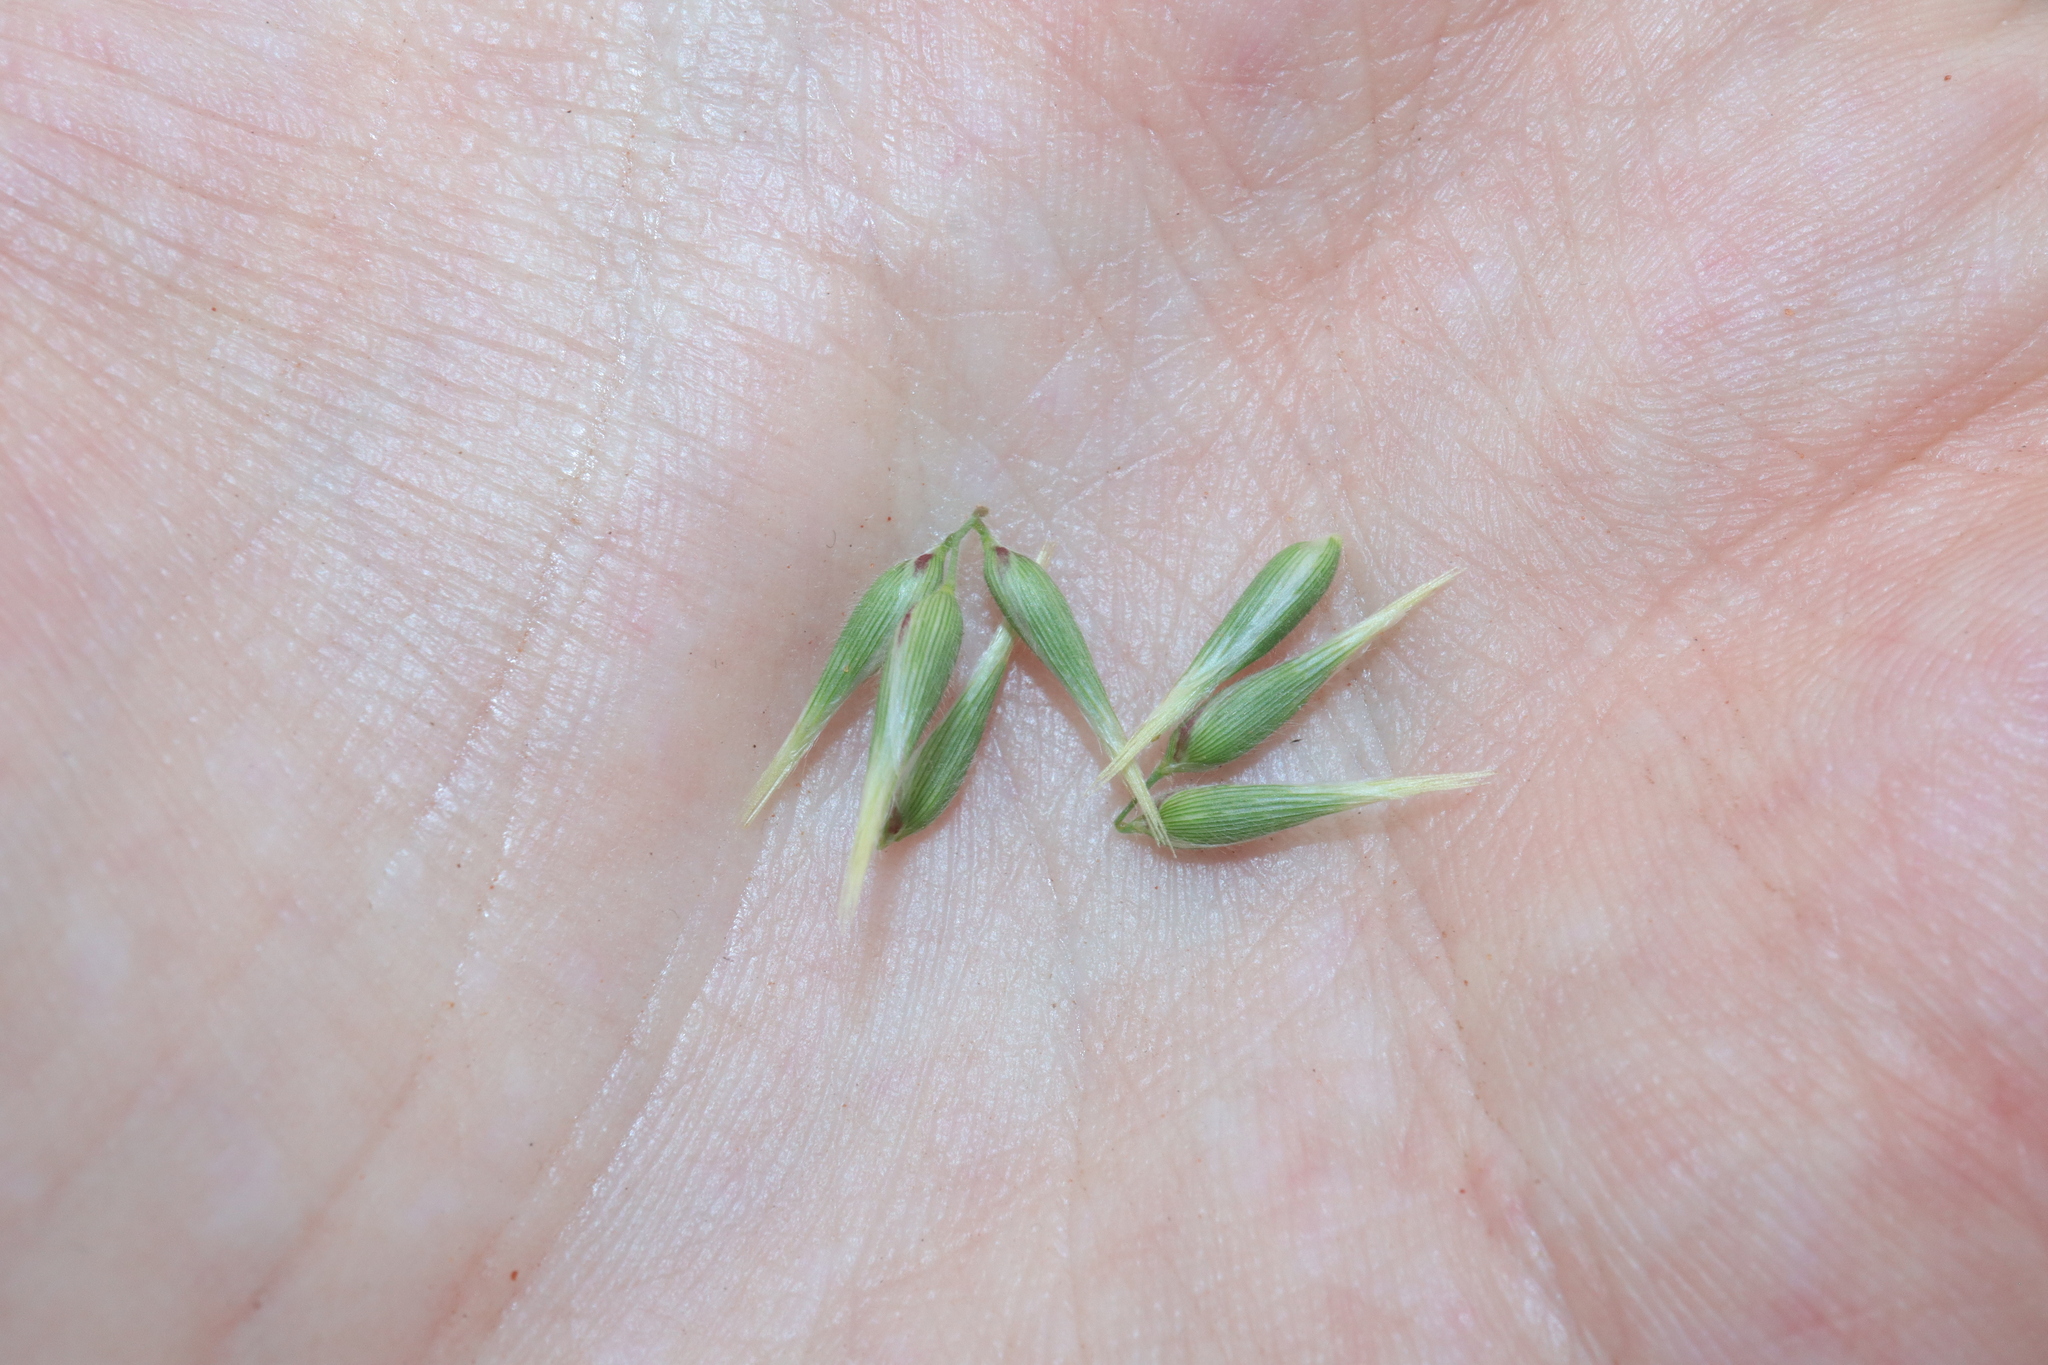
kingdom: Plantae
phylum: Tracheophyta
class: Liliopsida
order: Poales
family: Poaceae
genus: Enneapogon
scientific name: Enneapogon avenaceus
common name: Hairy oat grass
